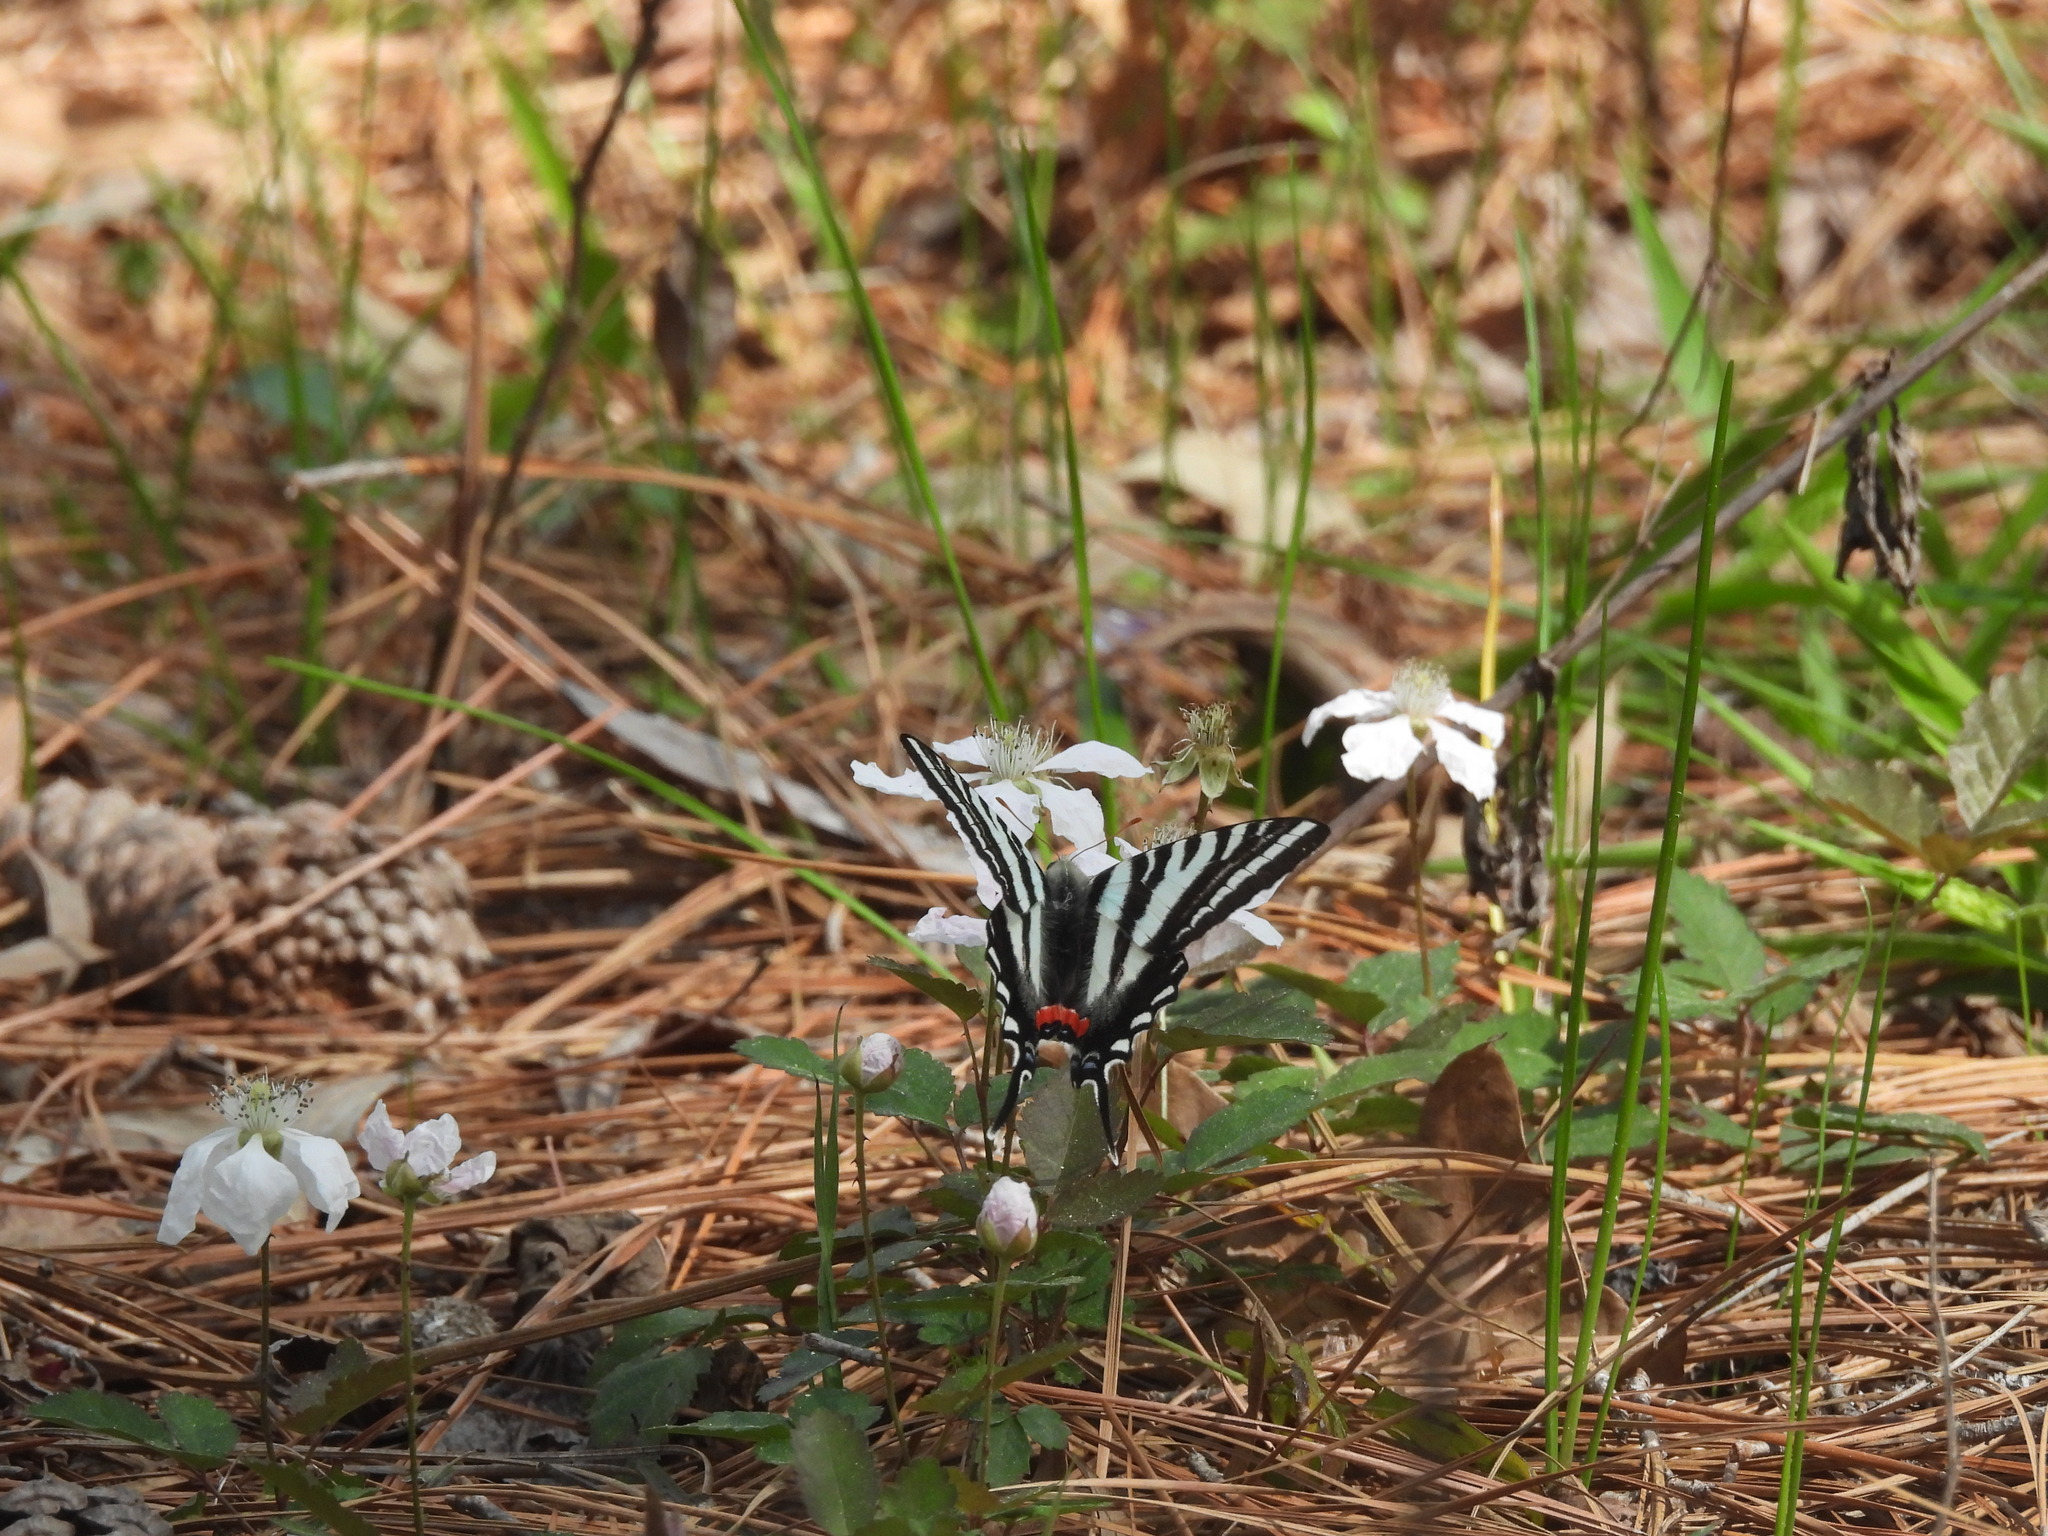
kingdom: Animalia
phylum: Arthropoda
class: Insecta
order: Lepidoptera
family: Papilionidae
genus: Protographium
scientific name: Protographium marcellus
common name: Zebra swallowtail
